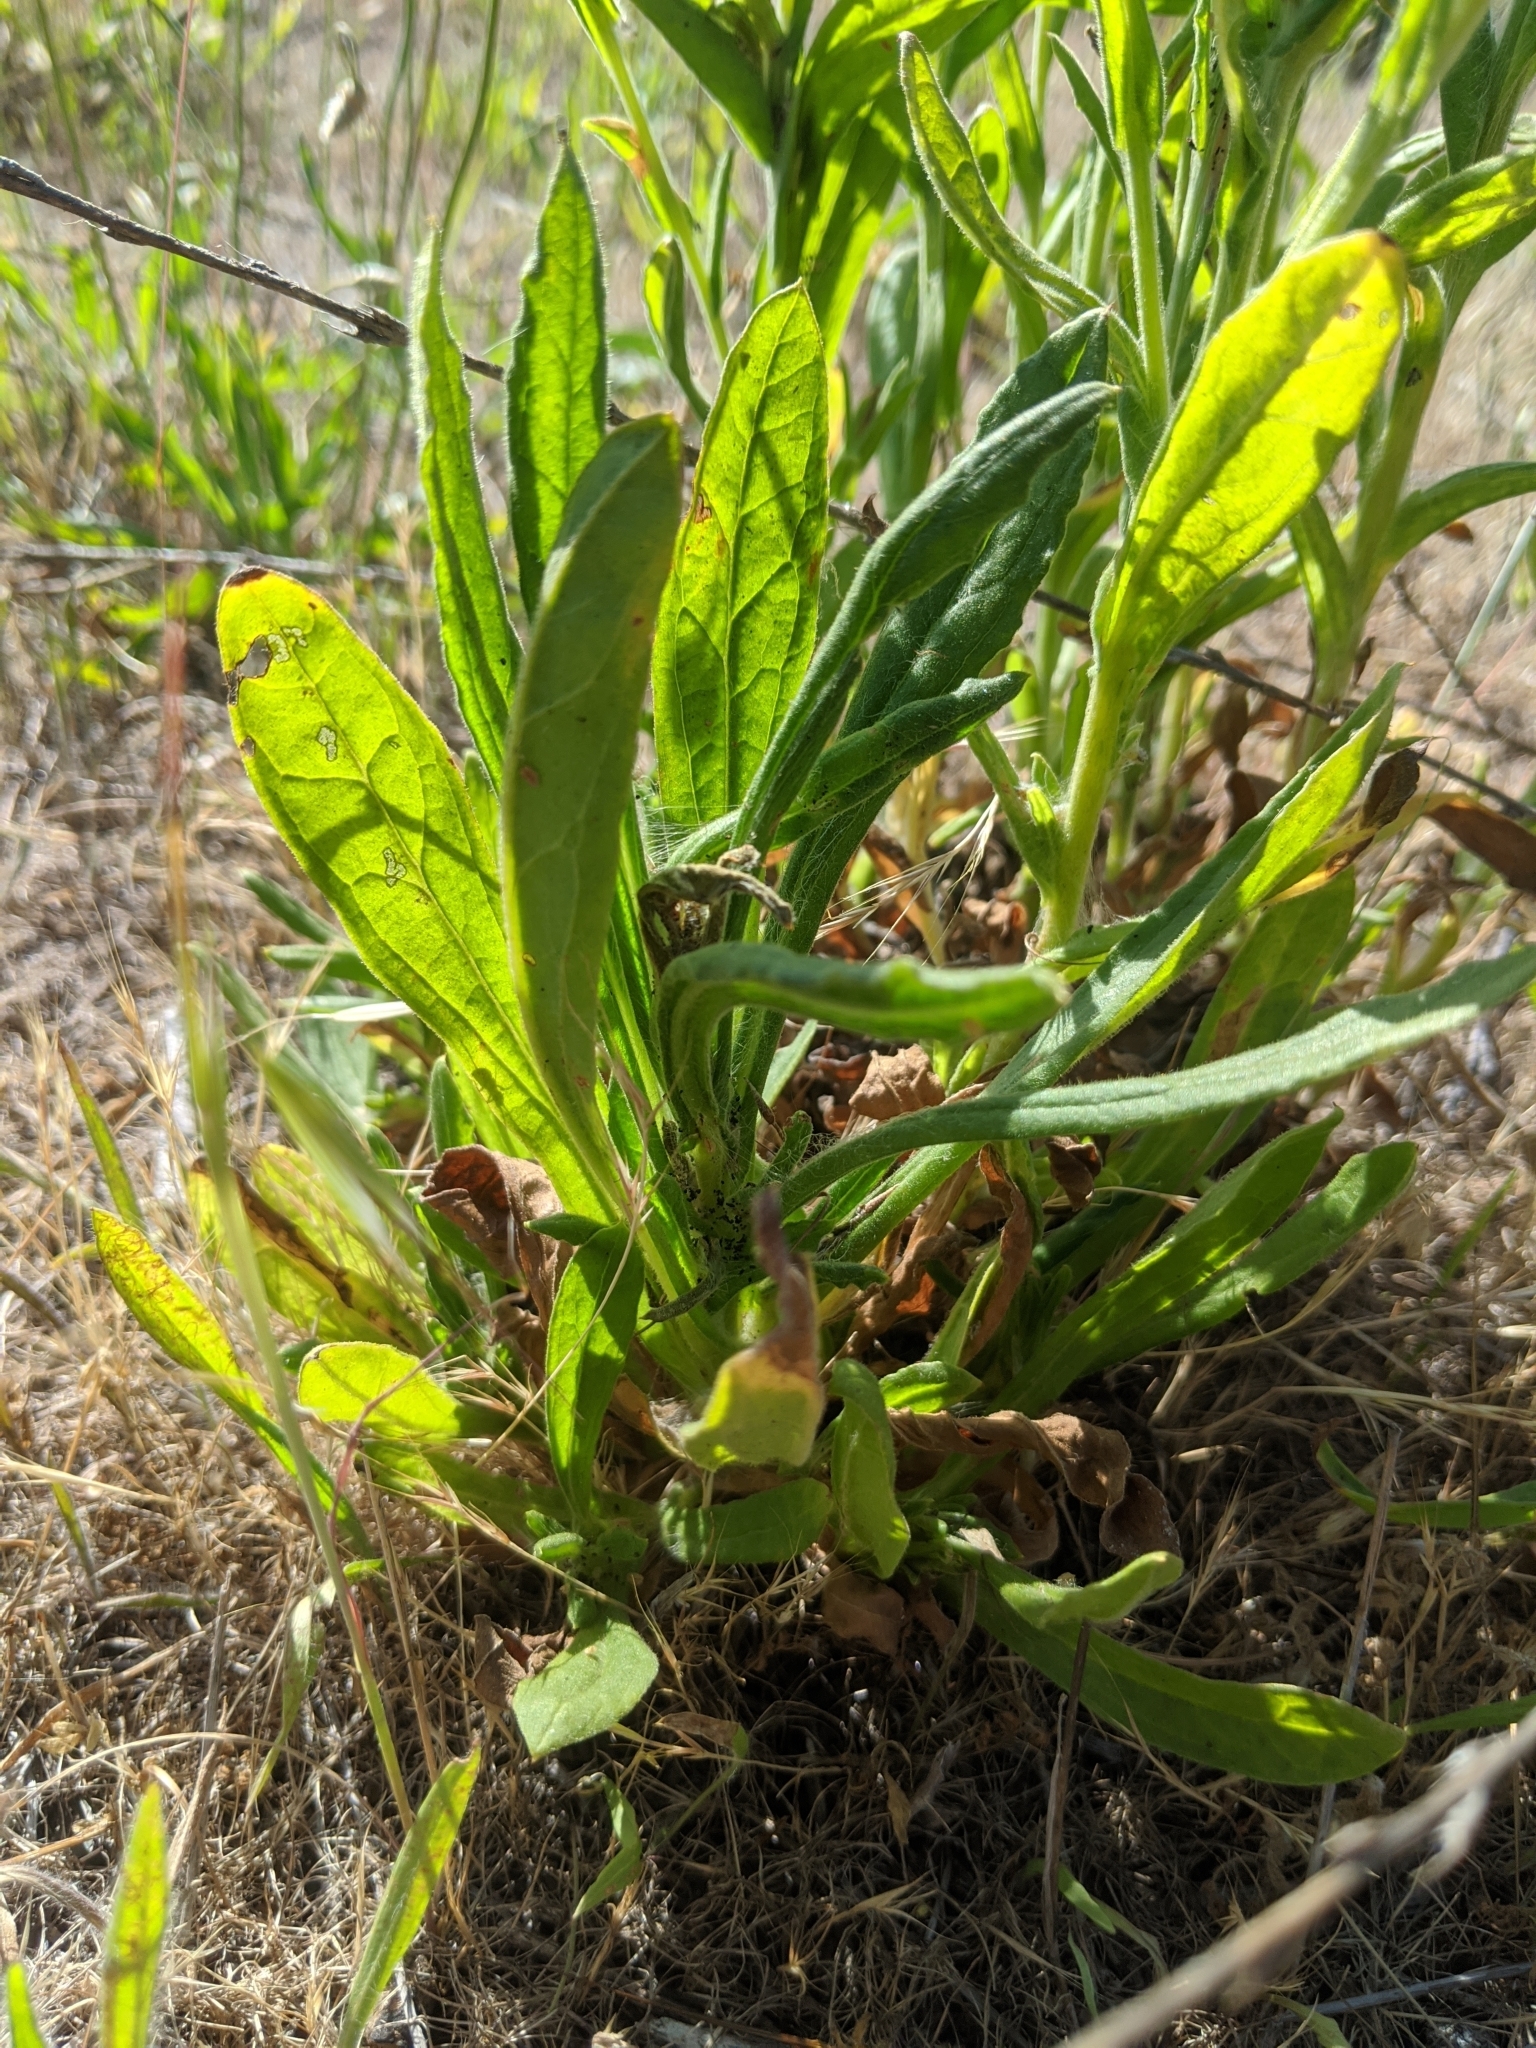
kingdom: Plantae
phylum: Tracheophyta
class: Magnoliopsida
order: Asterales
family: Asteraceae
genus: Pseudognaphalium
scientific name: Pseudognaphalium californicum
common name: California rabbit-tobacco
